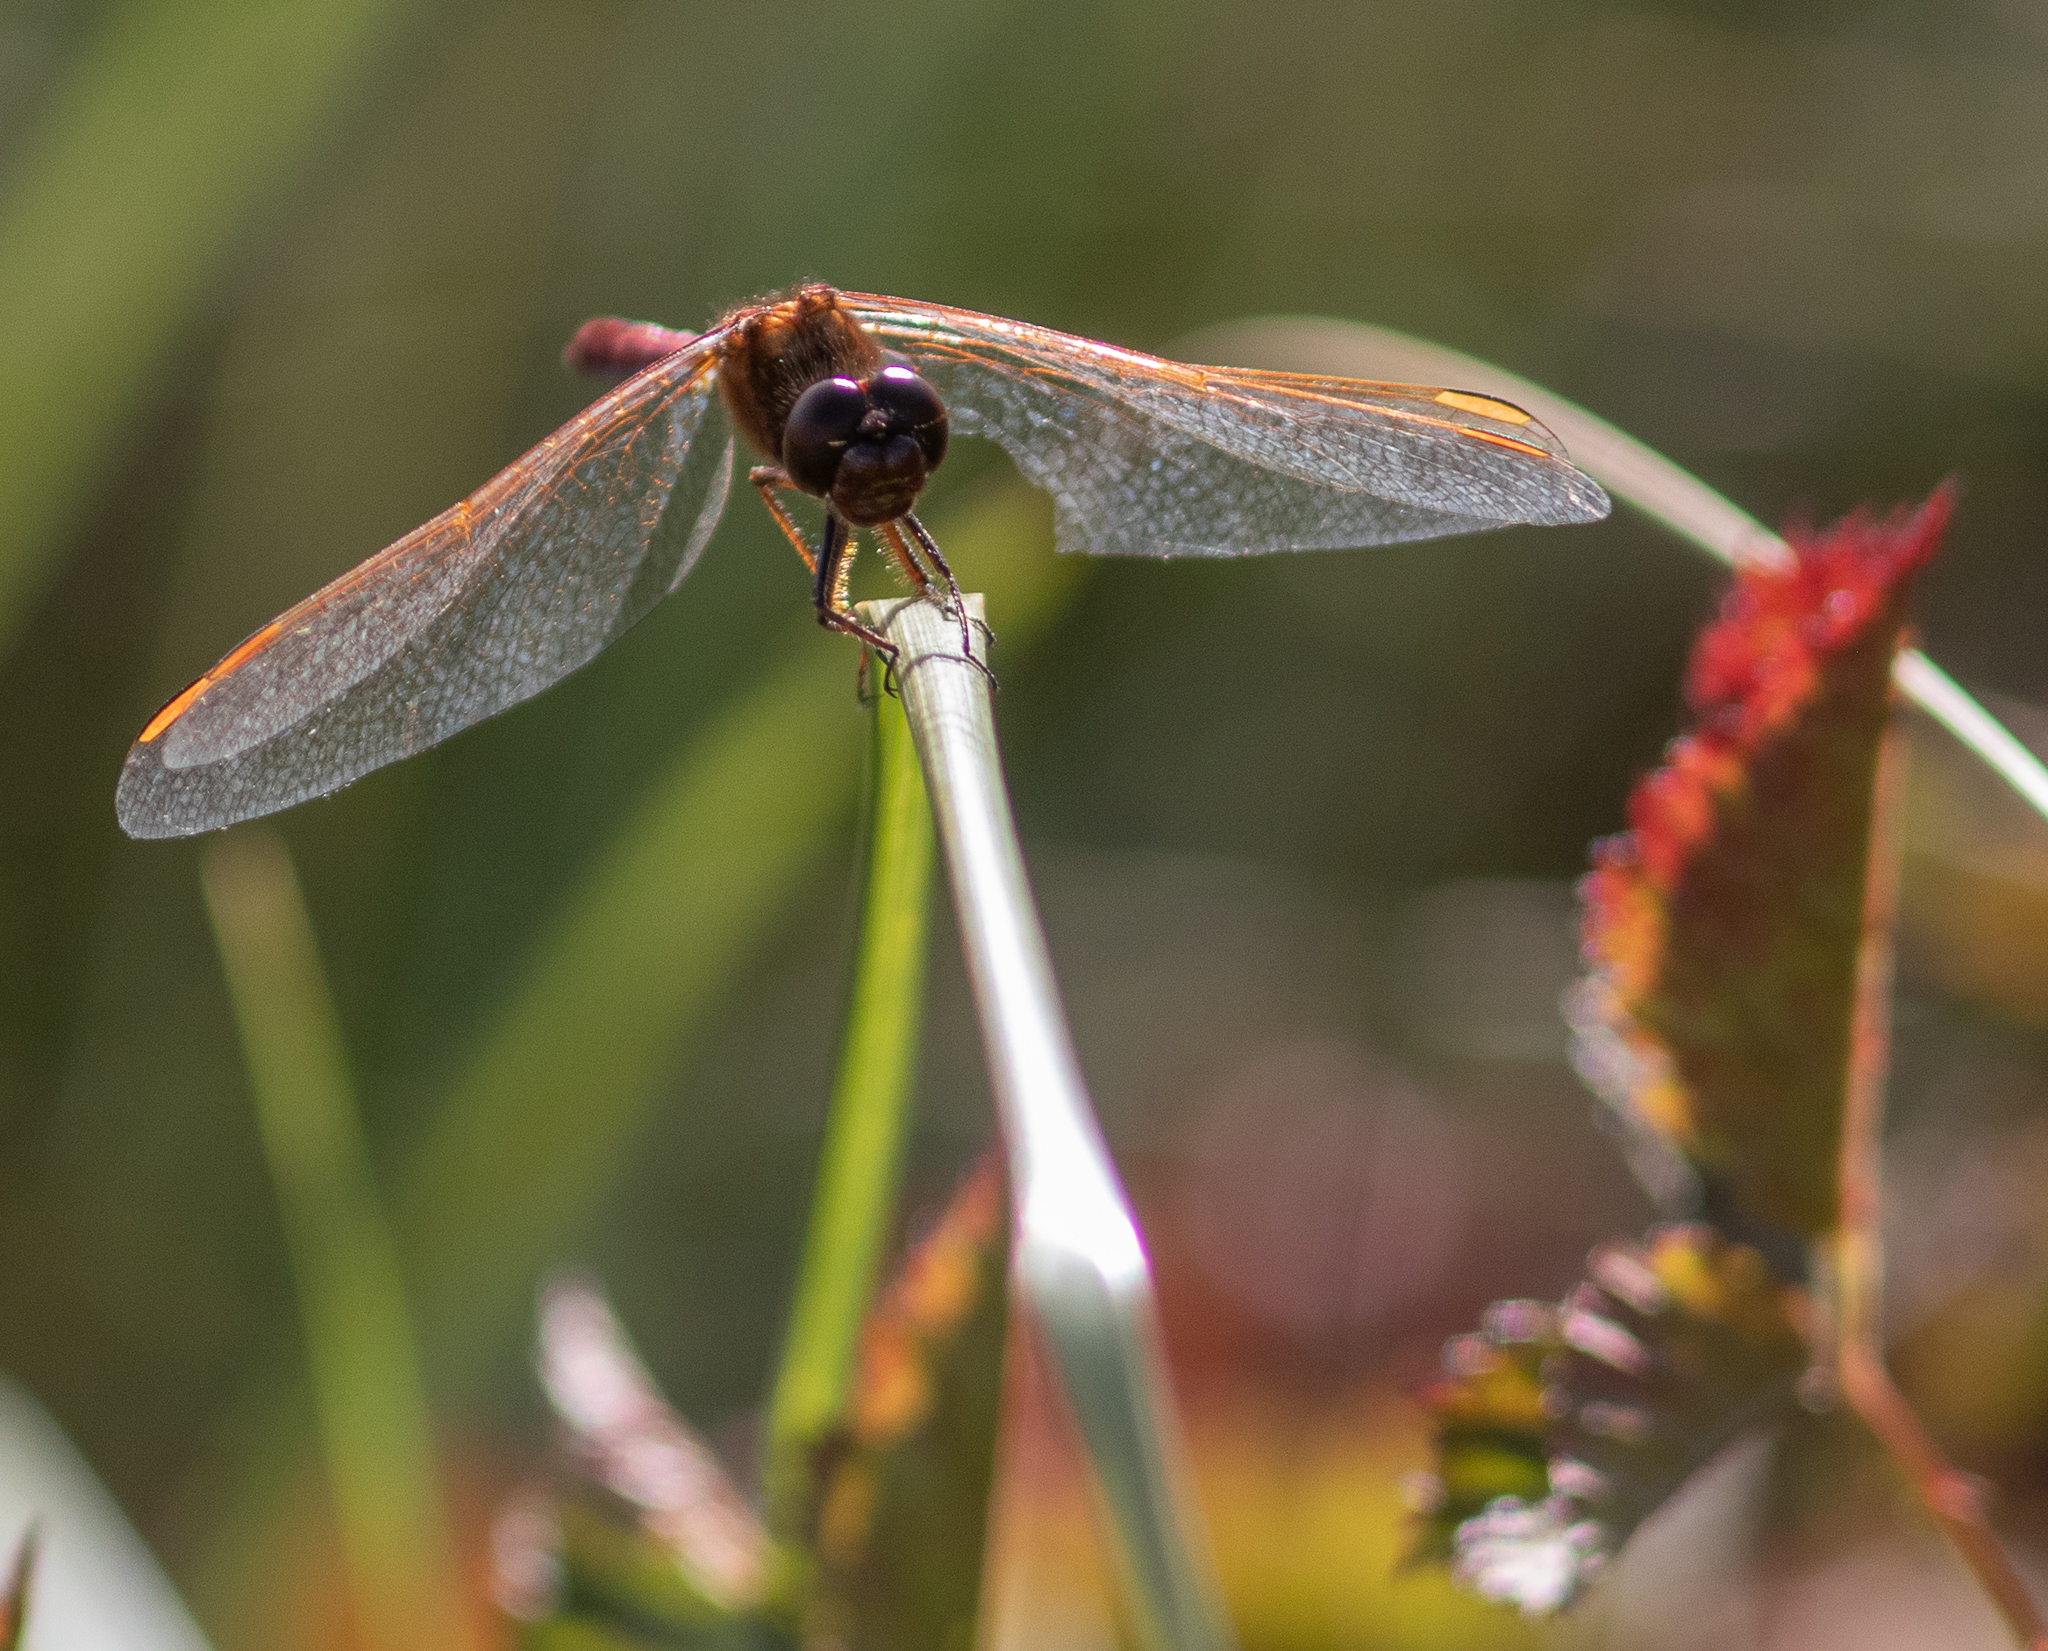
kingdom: Animalia
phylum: Arthropoda
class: Insecta
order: Odonata
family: Libellulidae
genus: Sympetrum
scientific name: Sympetrum costiferum
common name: Saffron-winged meadowhawk
